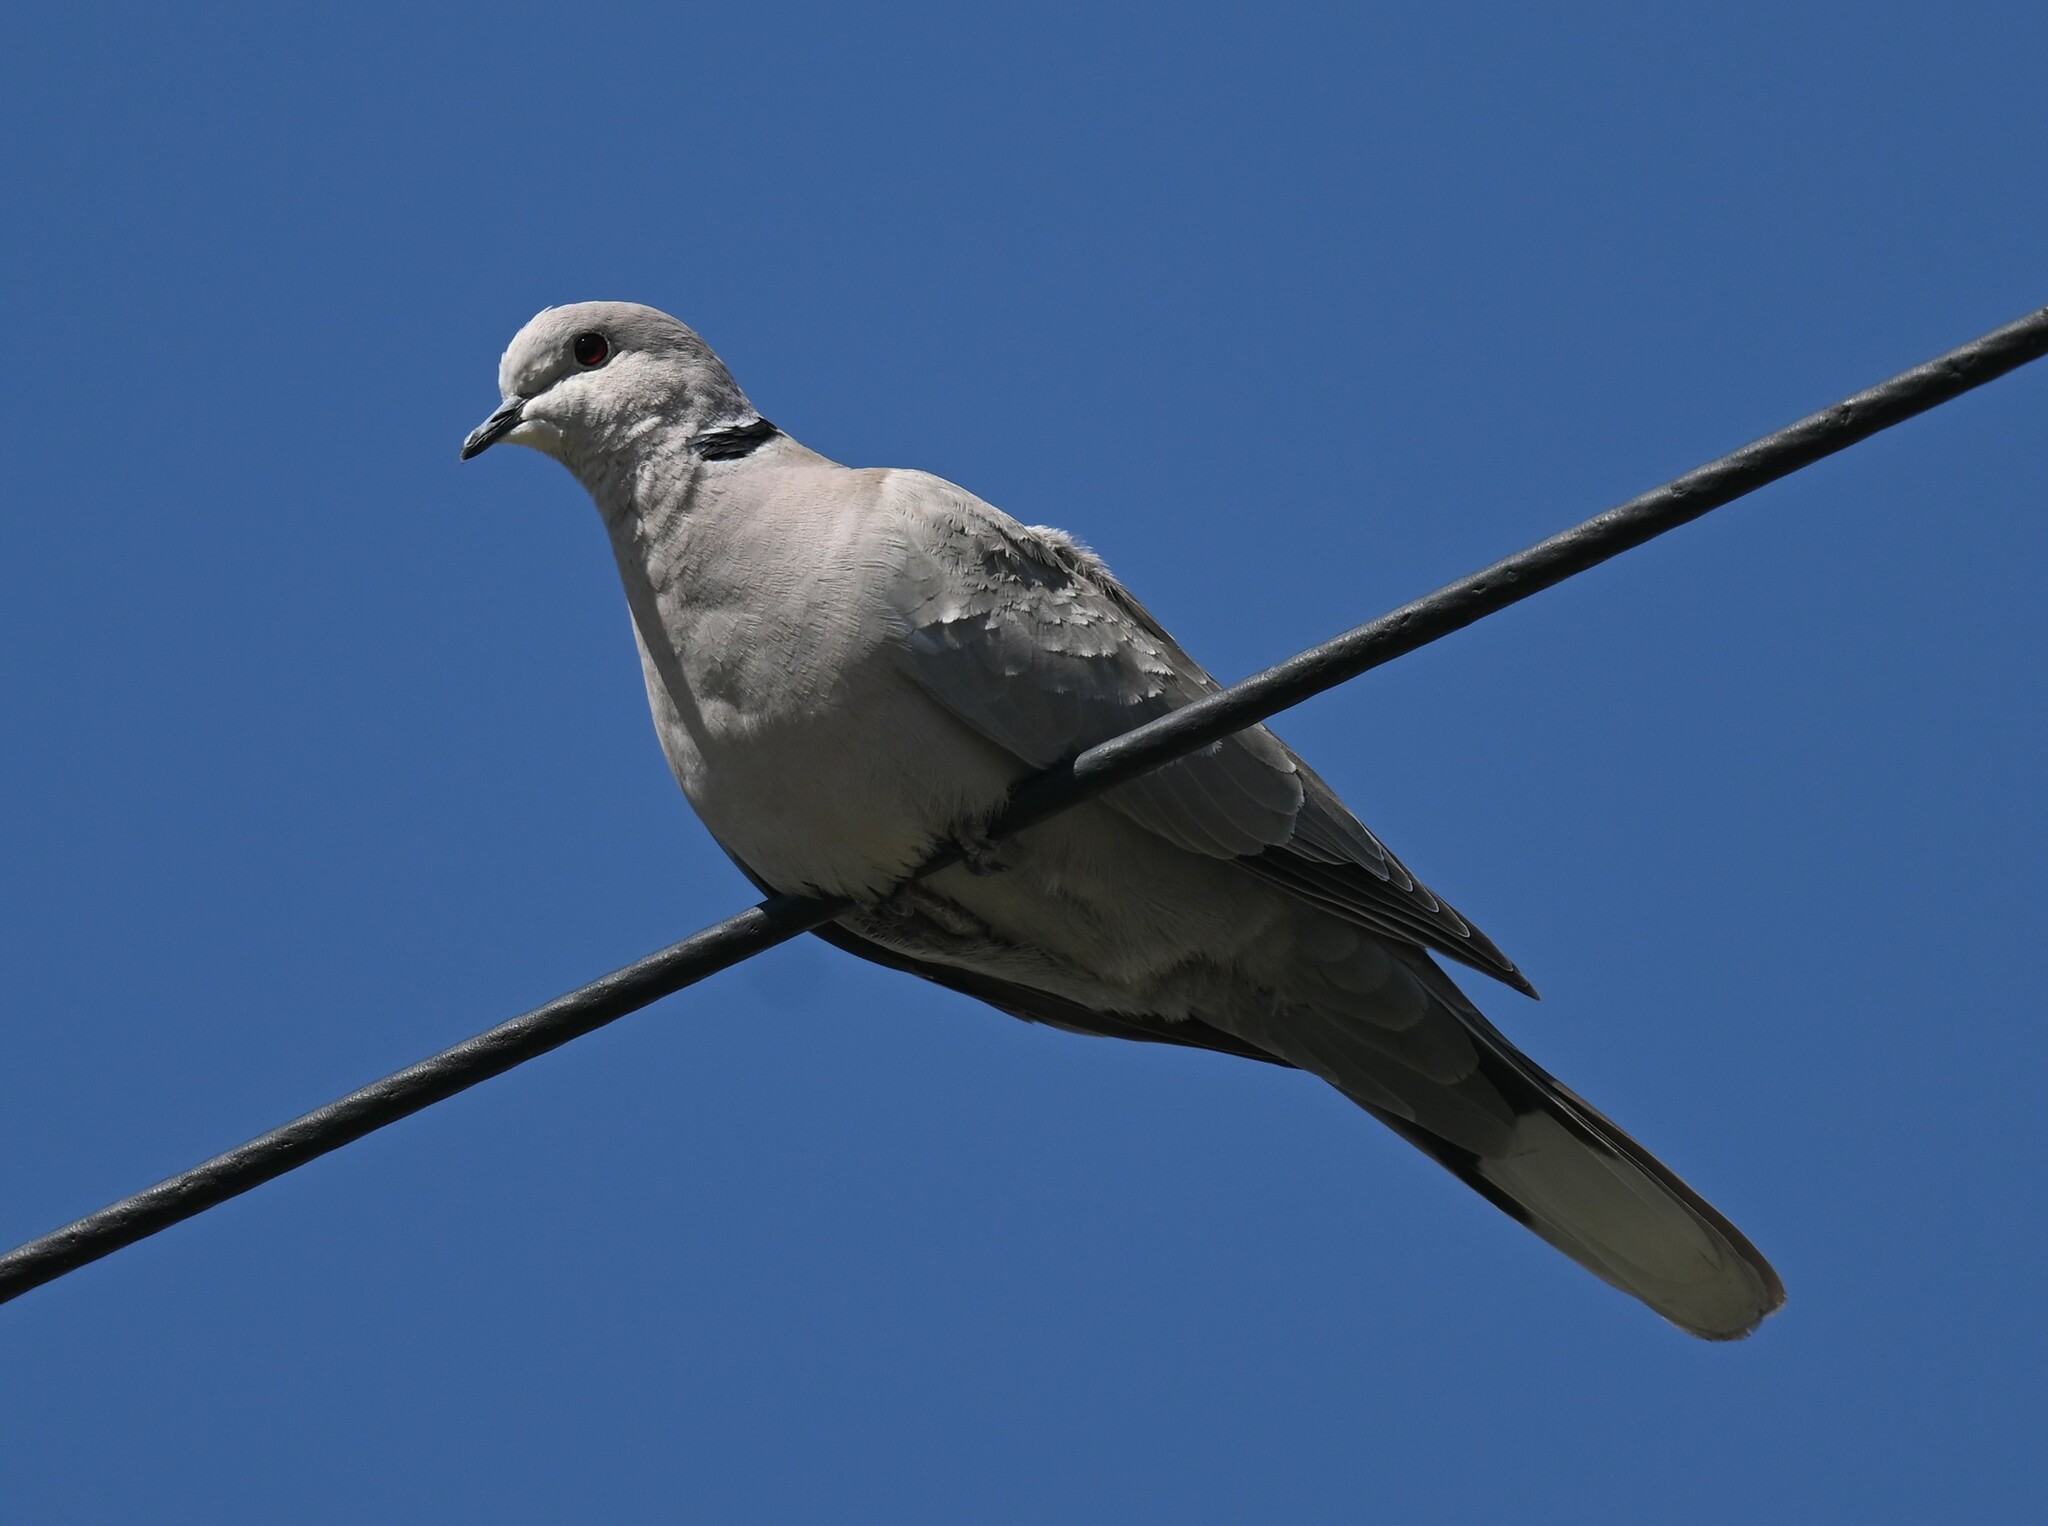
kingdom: Animalia
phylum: Chordata
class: Aves
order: Columbiformes
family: Columbidae
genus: Streptopelia
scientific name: Streptopelia decaocto
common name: Eurasian collared dove
